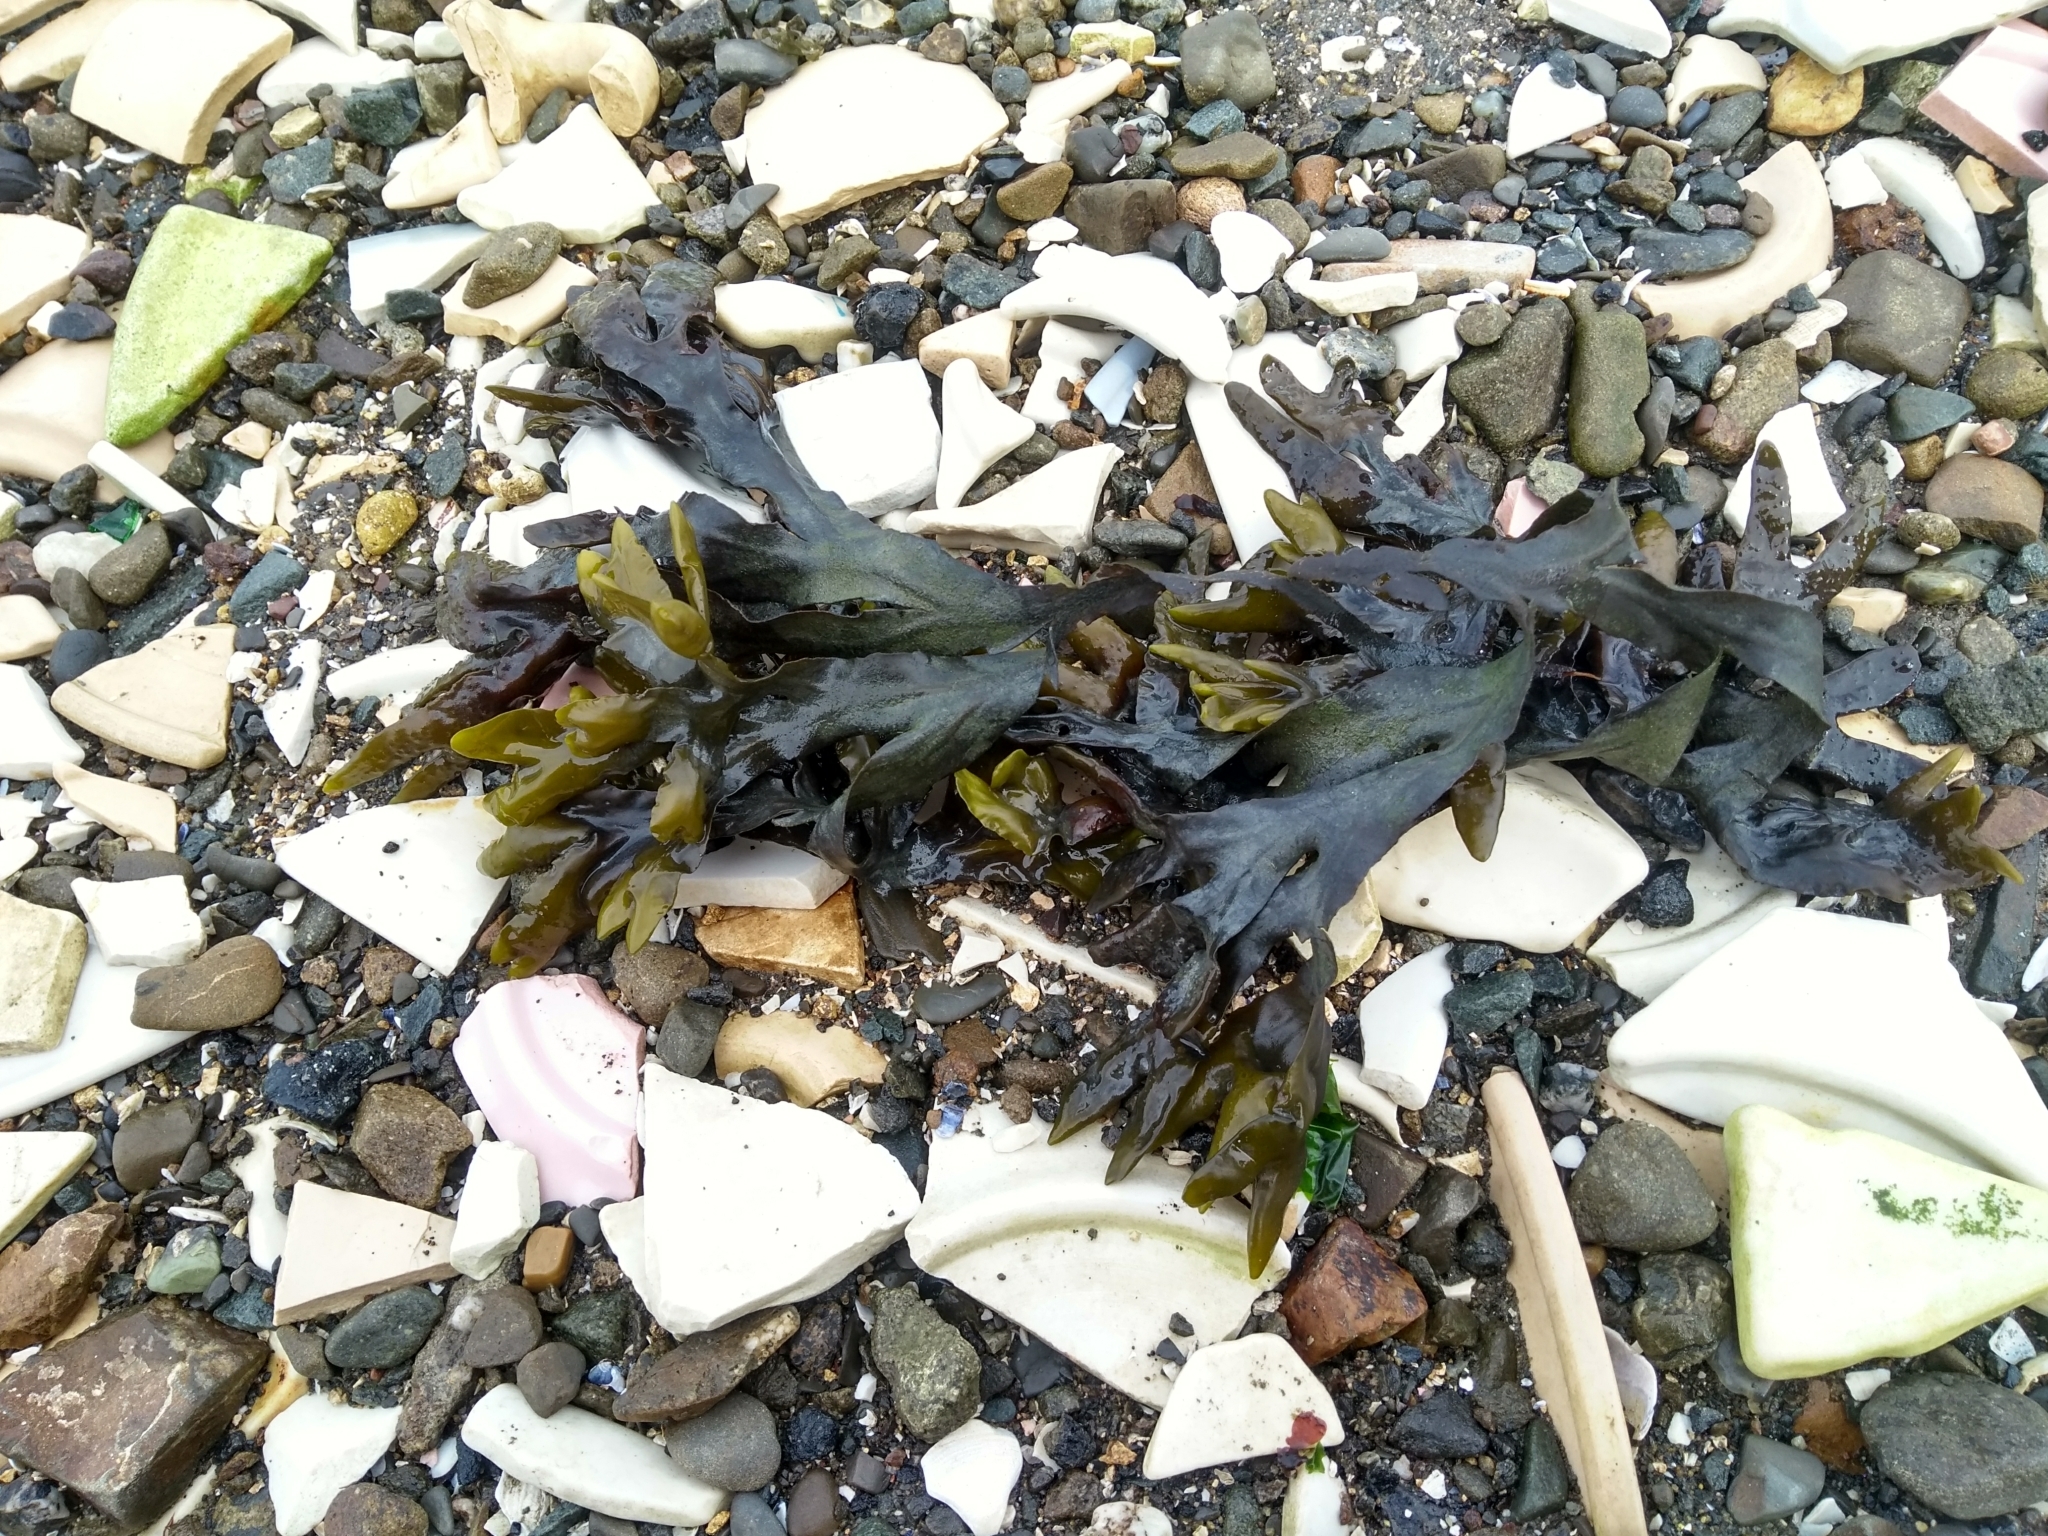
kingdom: Chromista
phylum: Ochrophyta
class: Phaeophyceae
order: Fucales
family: Fucaceae
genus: Fucus
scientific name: Fucus distichus
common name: Rockweed
